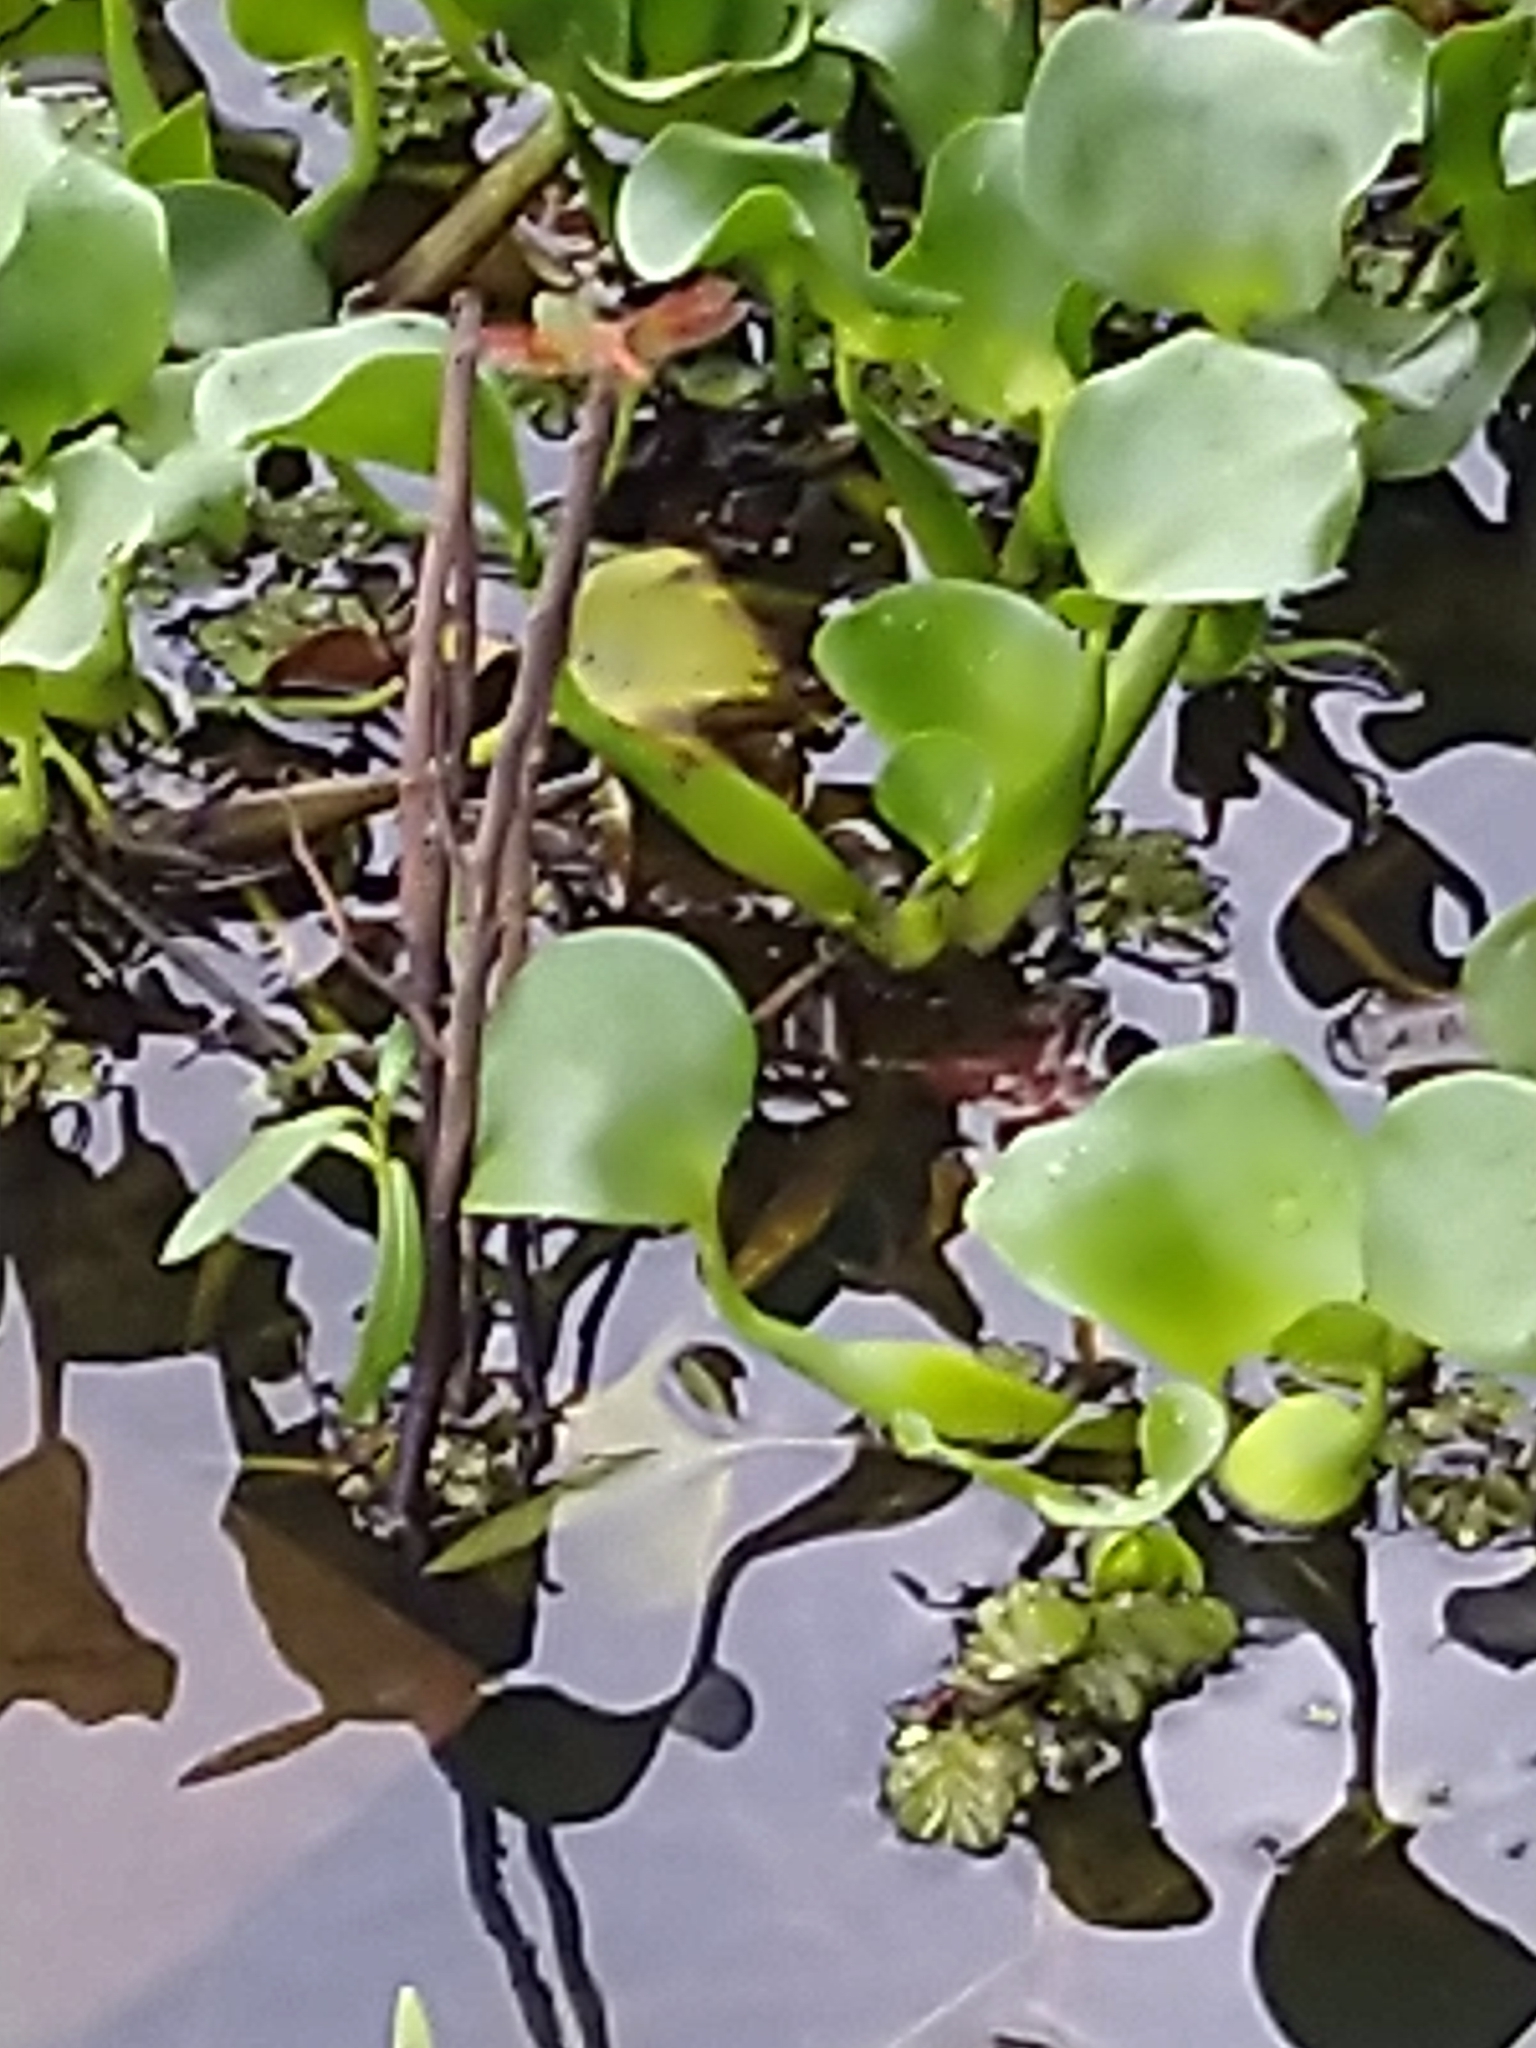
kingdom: Animalia
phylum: Arthropoda
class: Insecta
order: Odonata
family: Libellulidae
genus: Brachythemis
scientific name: Brachythemis contaminata
